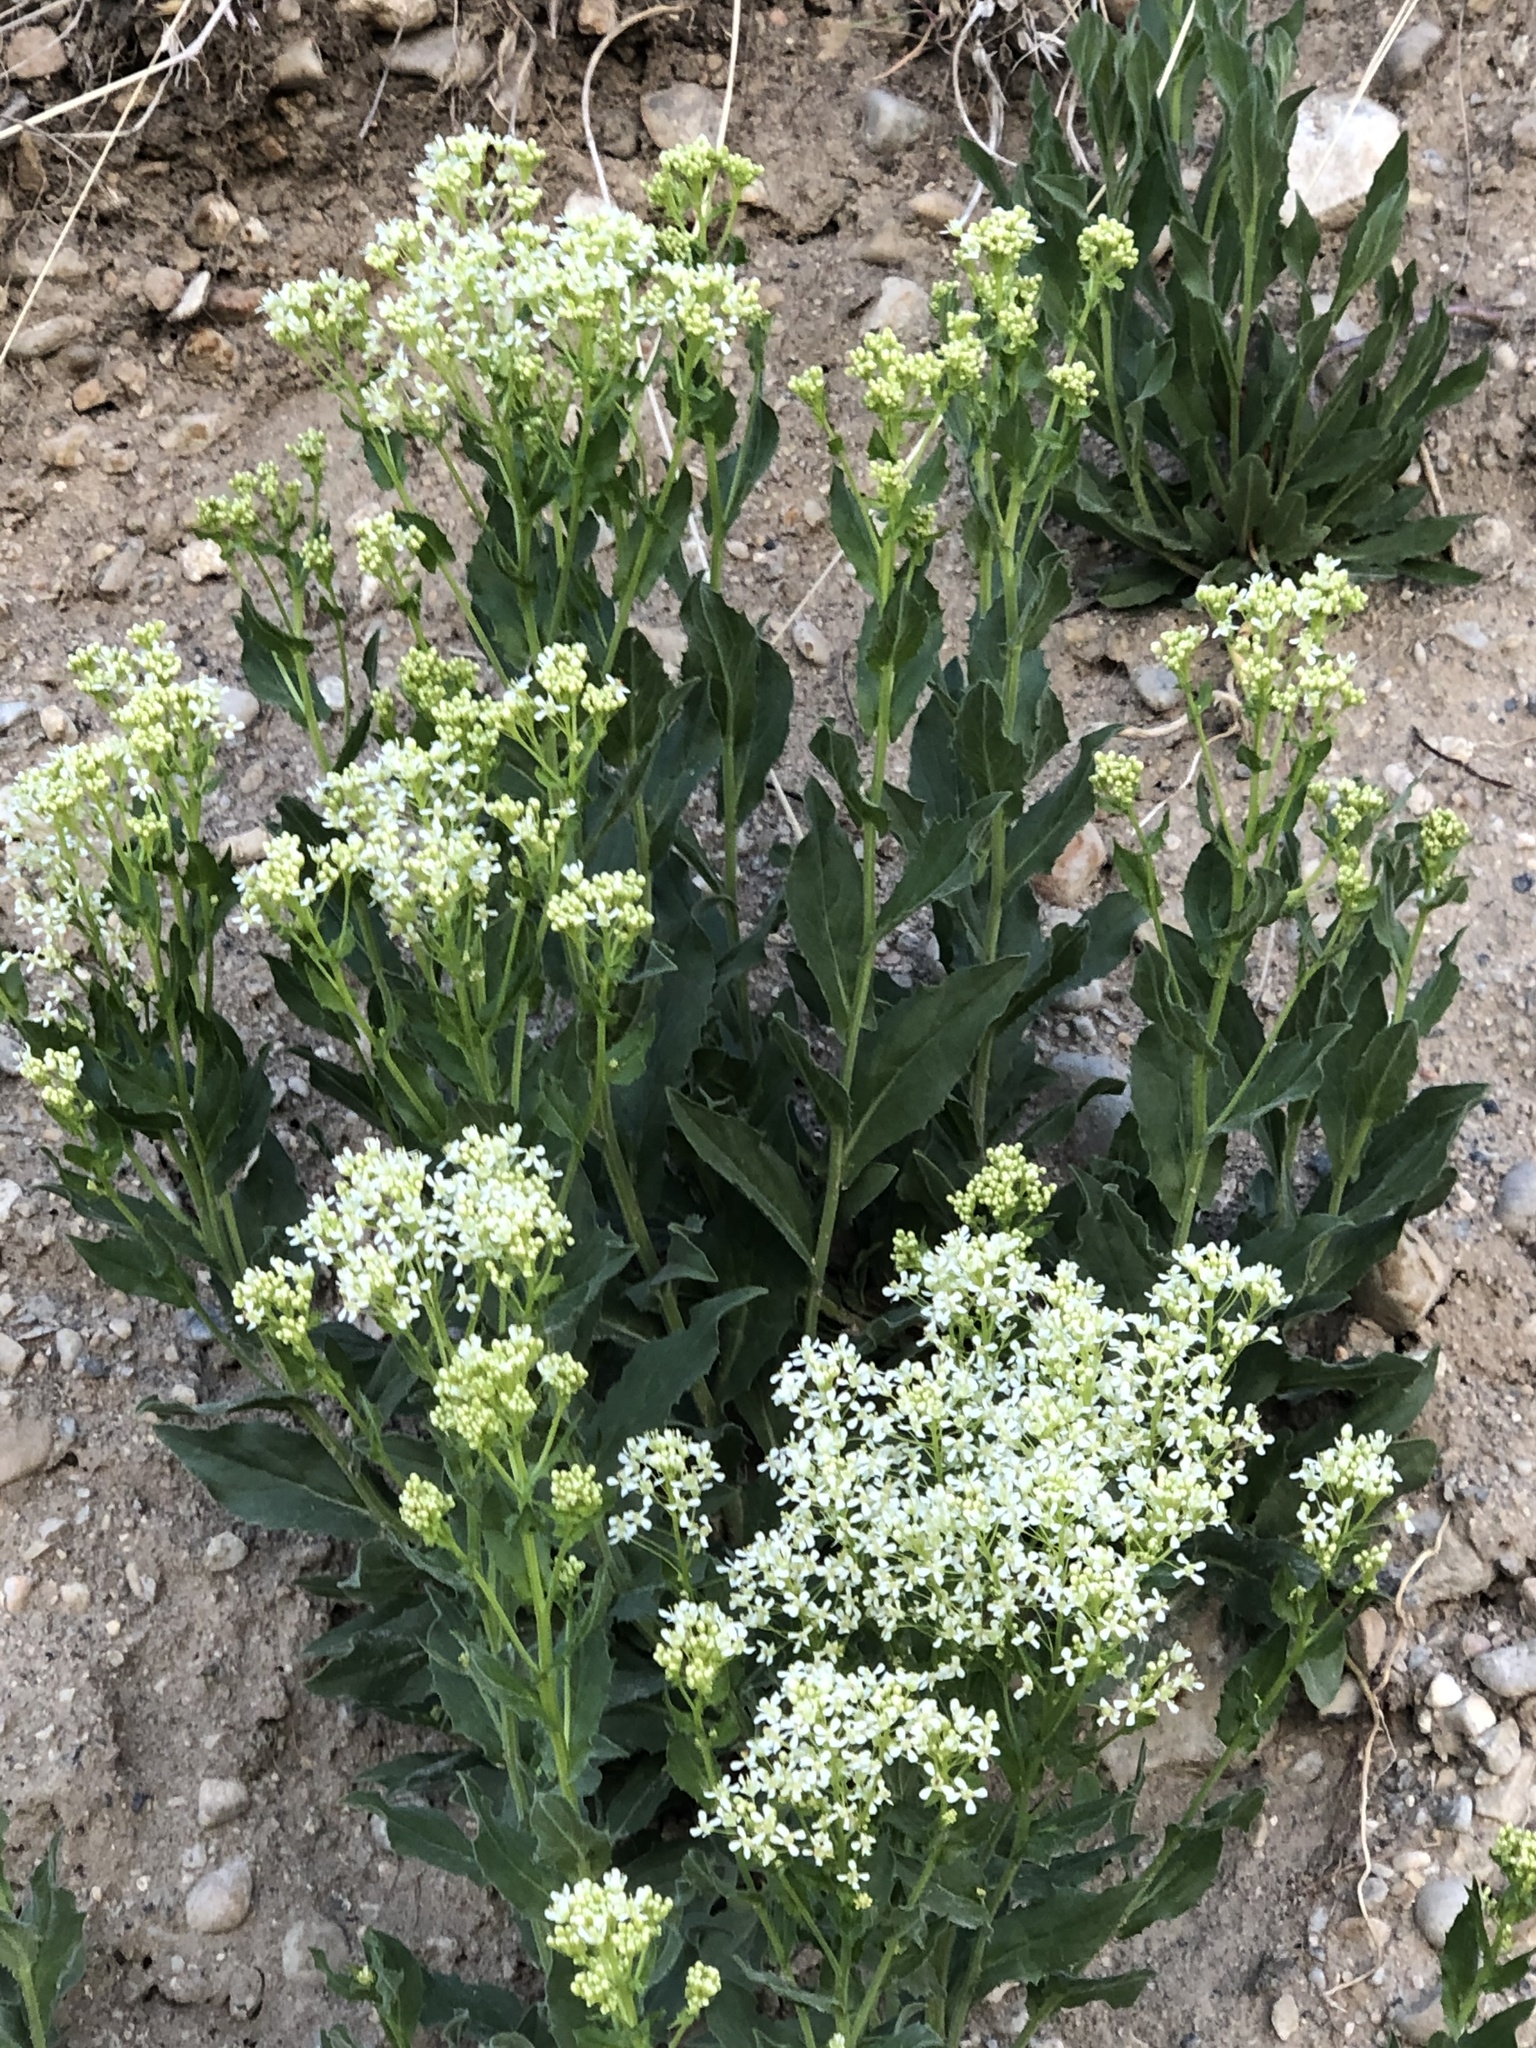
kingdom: Plantae
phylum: Tracheophyta
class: Magnoliopsida
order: Brassicales
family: Brassicaceae
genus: Lepidium
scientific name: Lepidium draba
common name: Hoary cress
